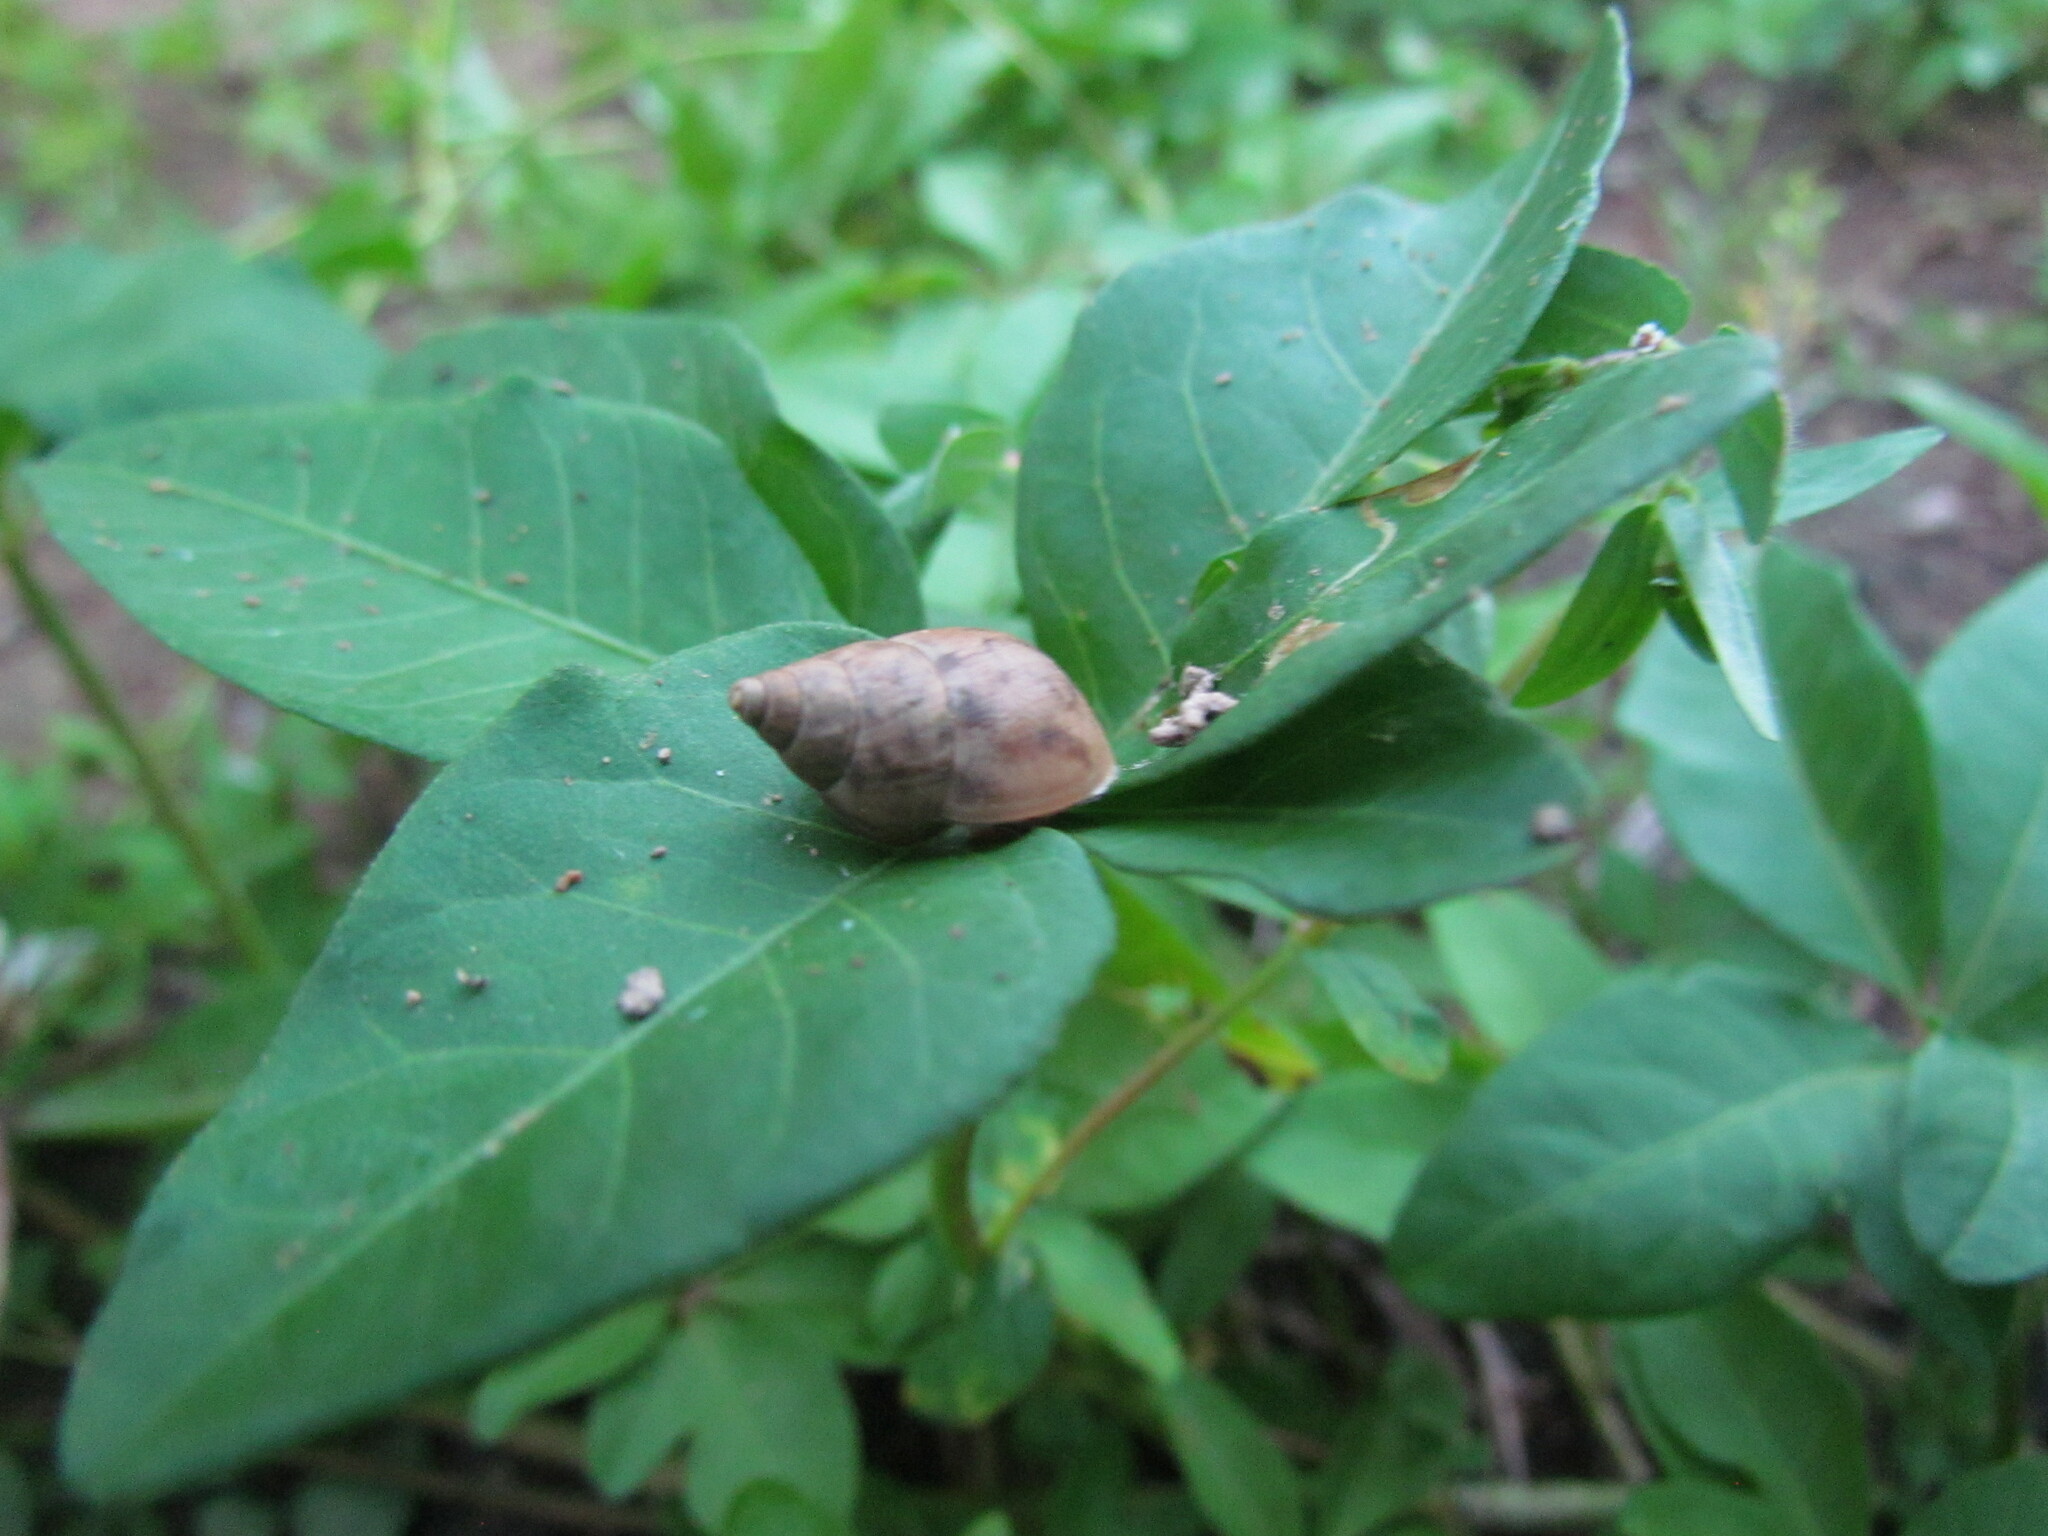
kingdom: Animalia
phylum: Mollusca
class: Gastropoda
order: Stylommatophora
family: Bulimulidae
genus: Bulimulus
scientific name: Bulimulus bonariensis
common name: Snail
